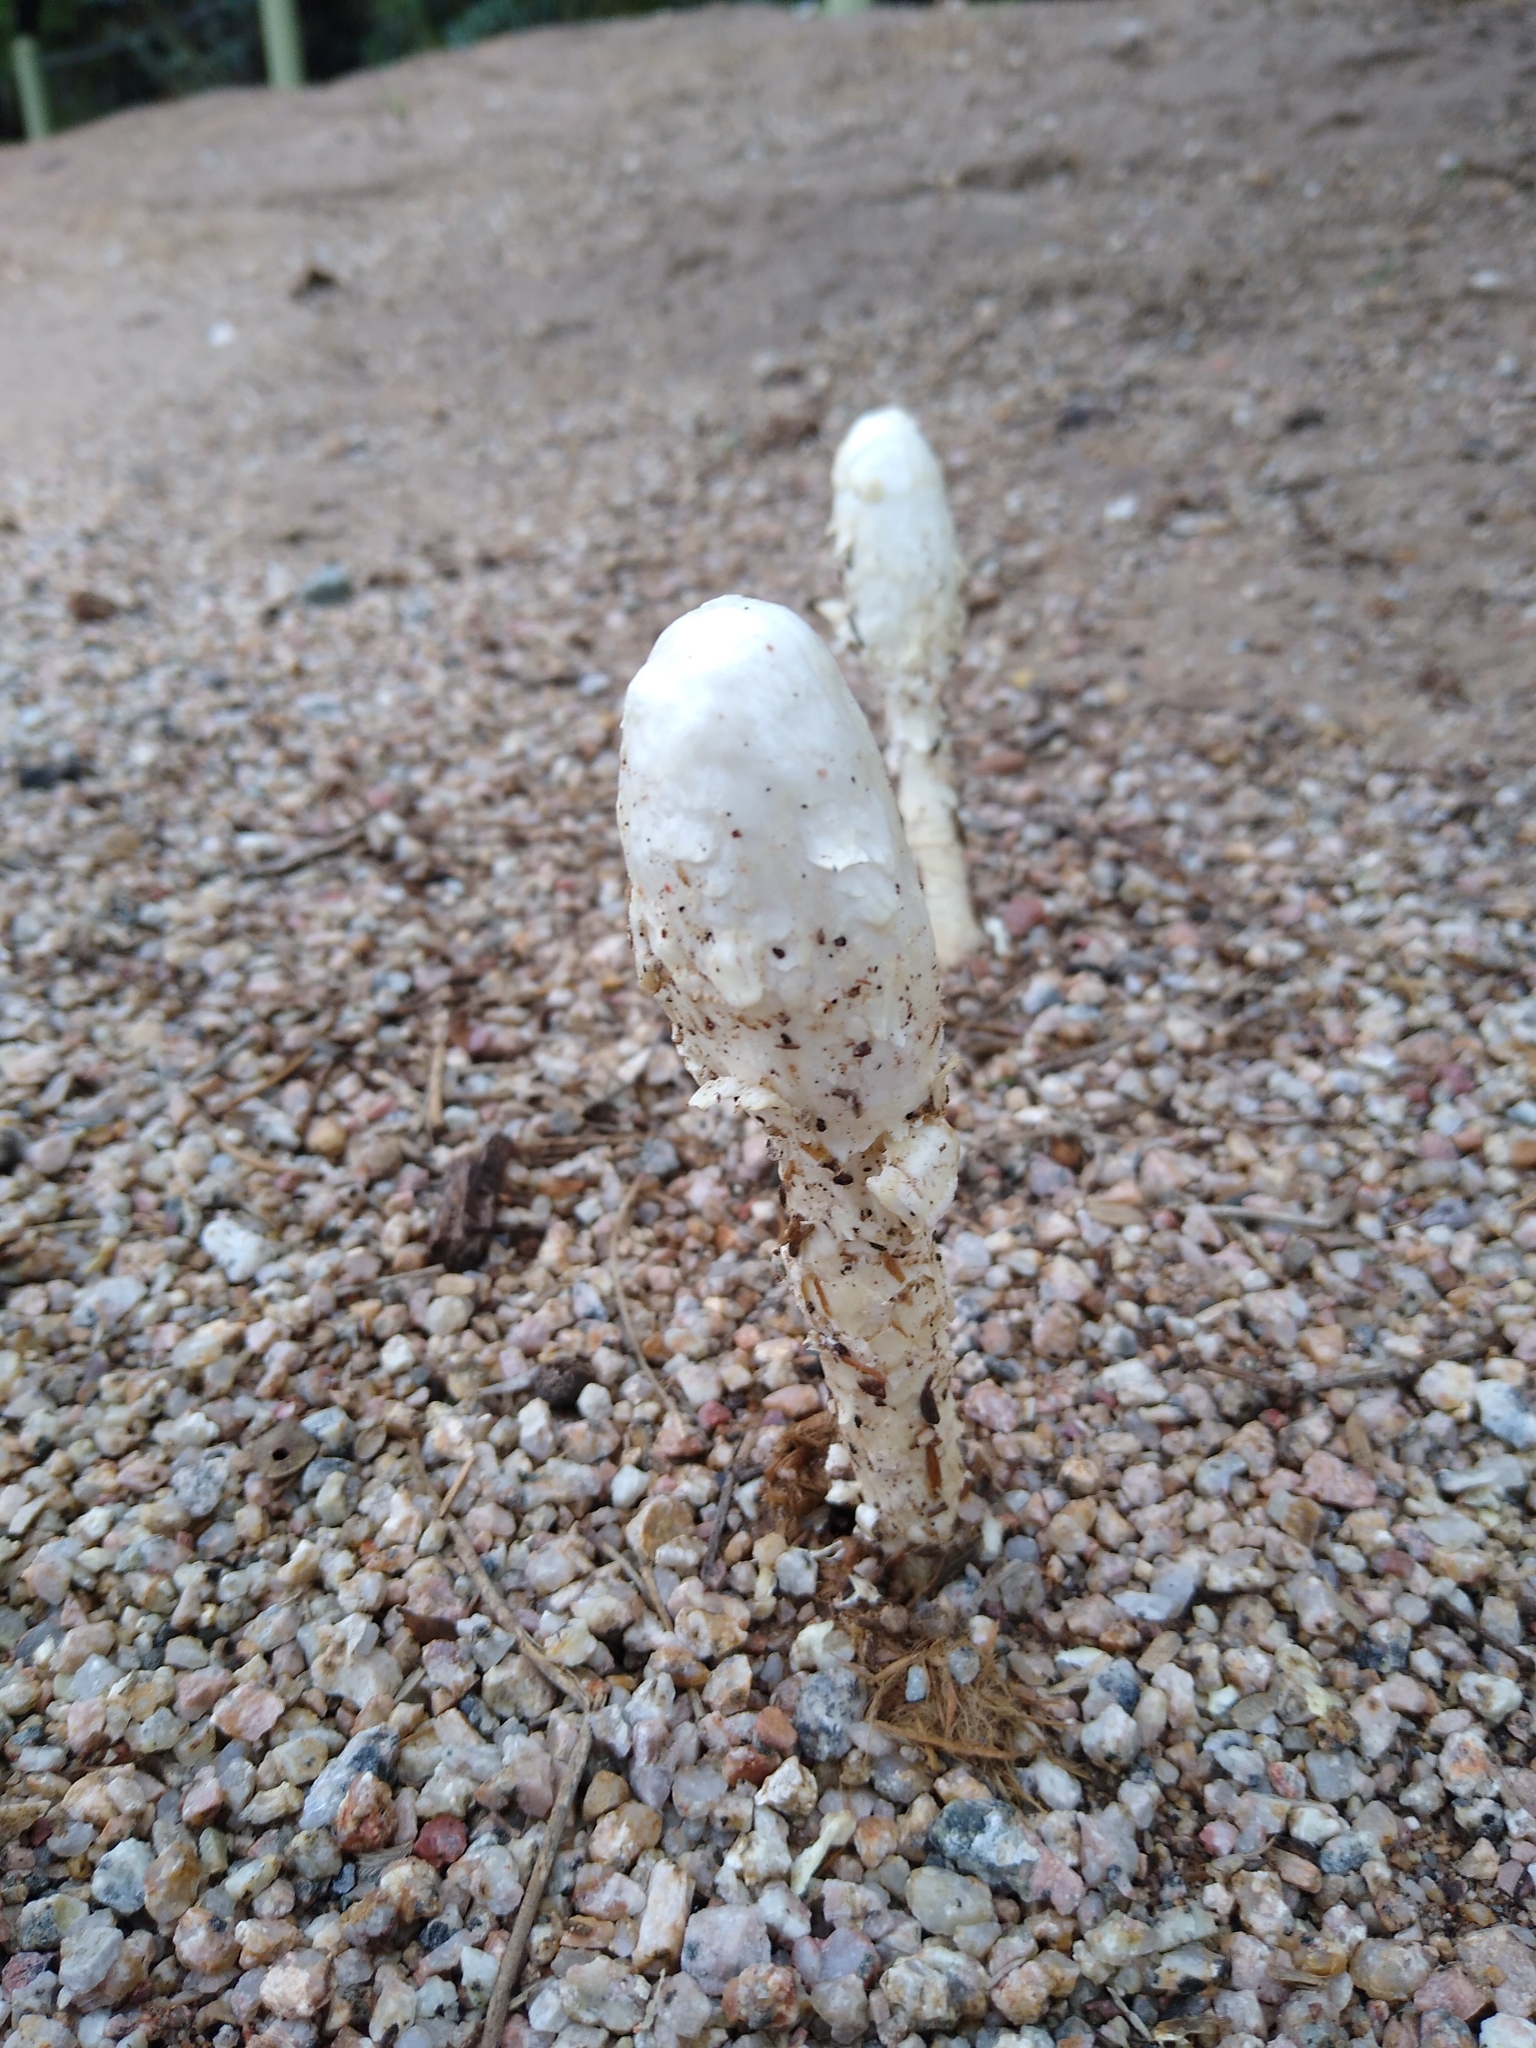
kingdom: Fungi
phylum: Basidiomycota
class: Agaricomycetes
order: Agaricales
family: Agaricaceae
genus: Podaxis
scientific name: Podaxis pistillaris
